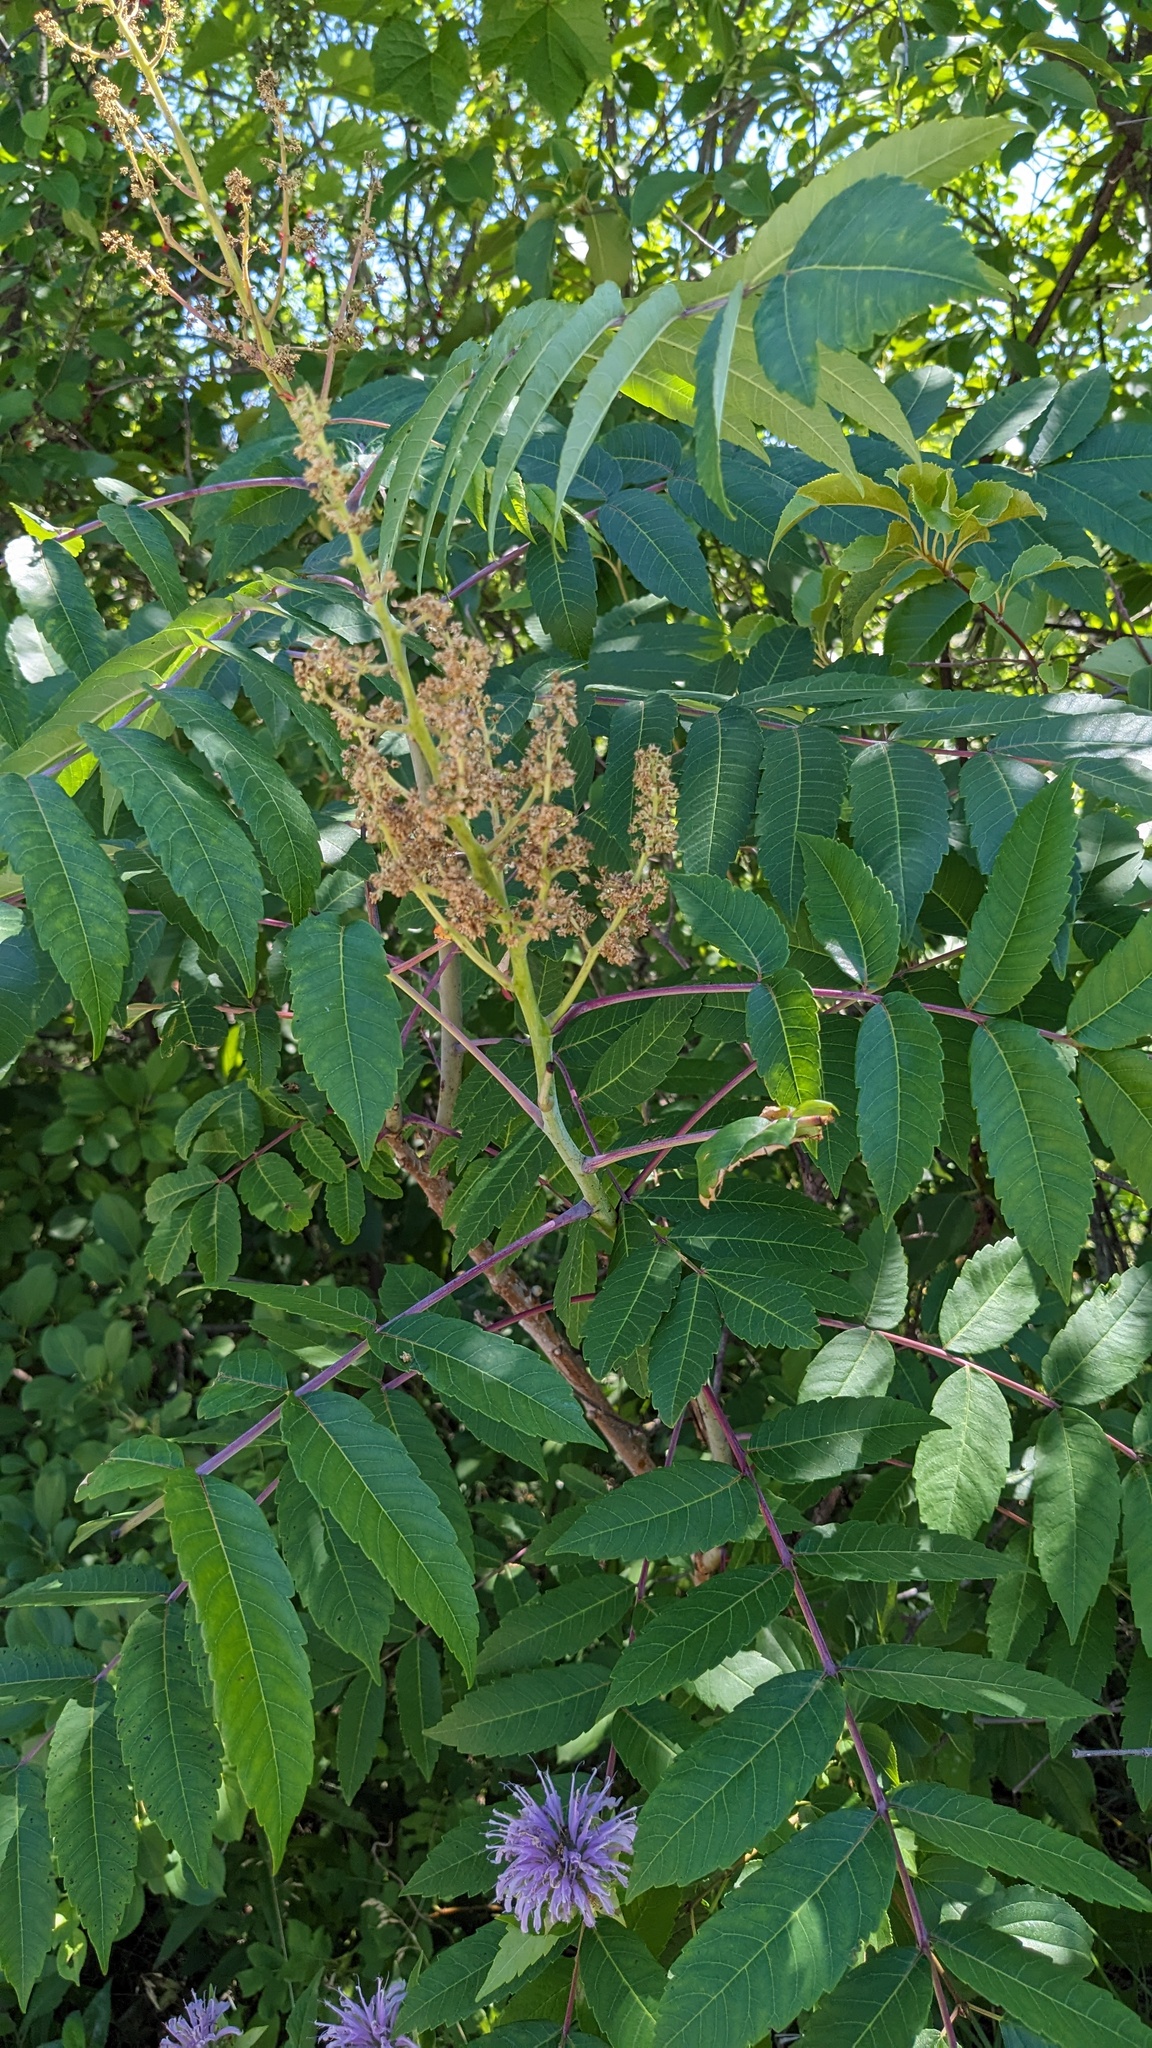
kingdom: Plantae
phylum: Tracheophyta
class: Magnoliopsida
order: Sapindales
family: Anacardiaceae
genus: Rhus
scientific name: Rhus glabra
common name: Scarlet sumac
